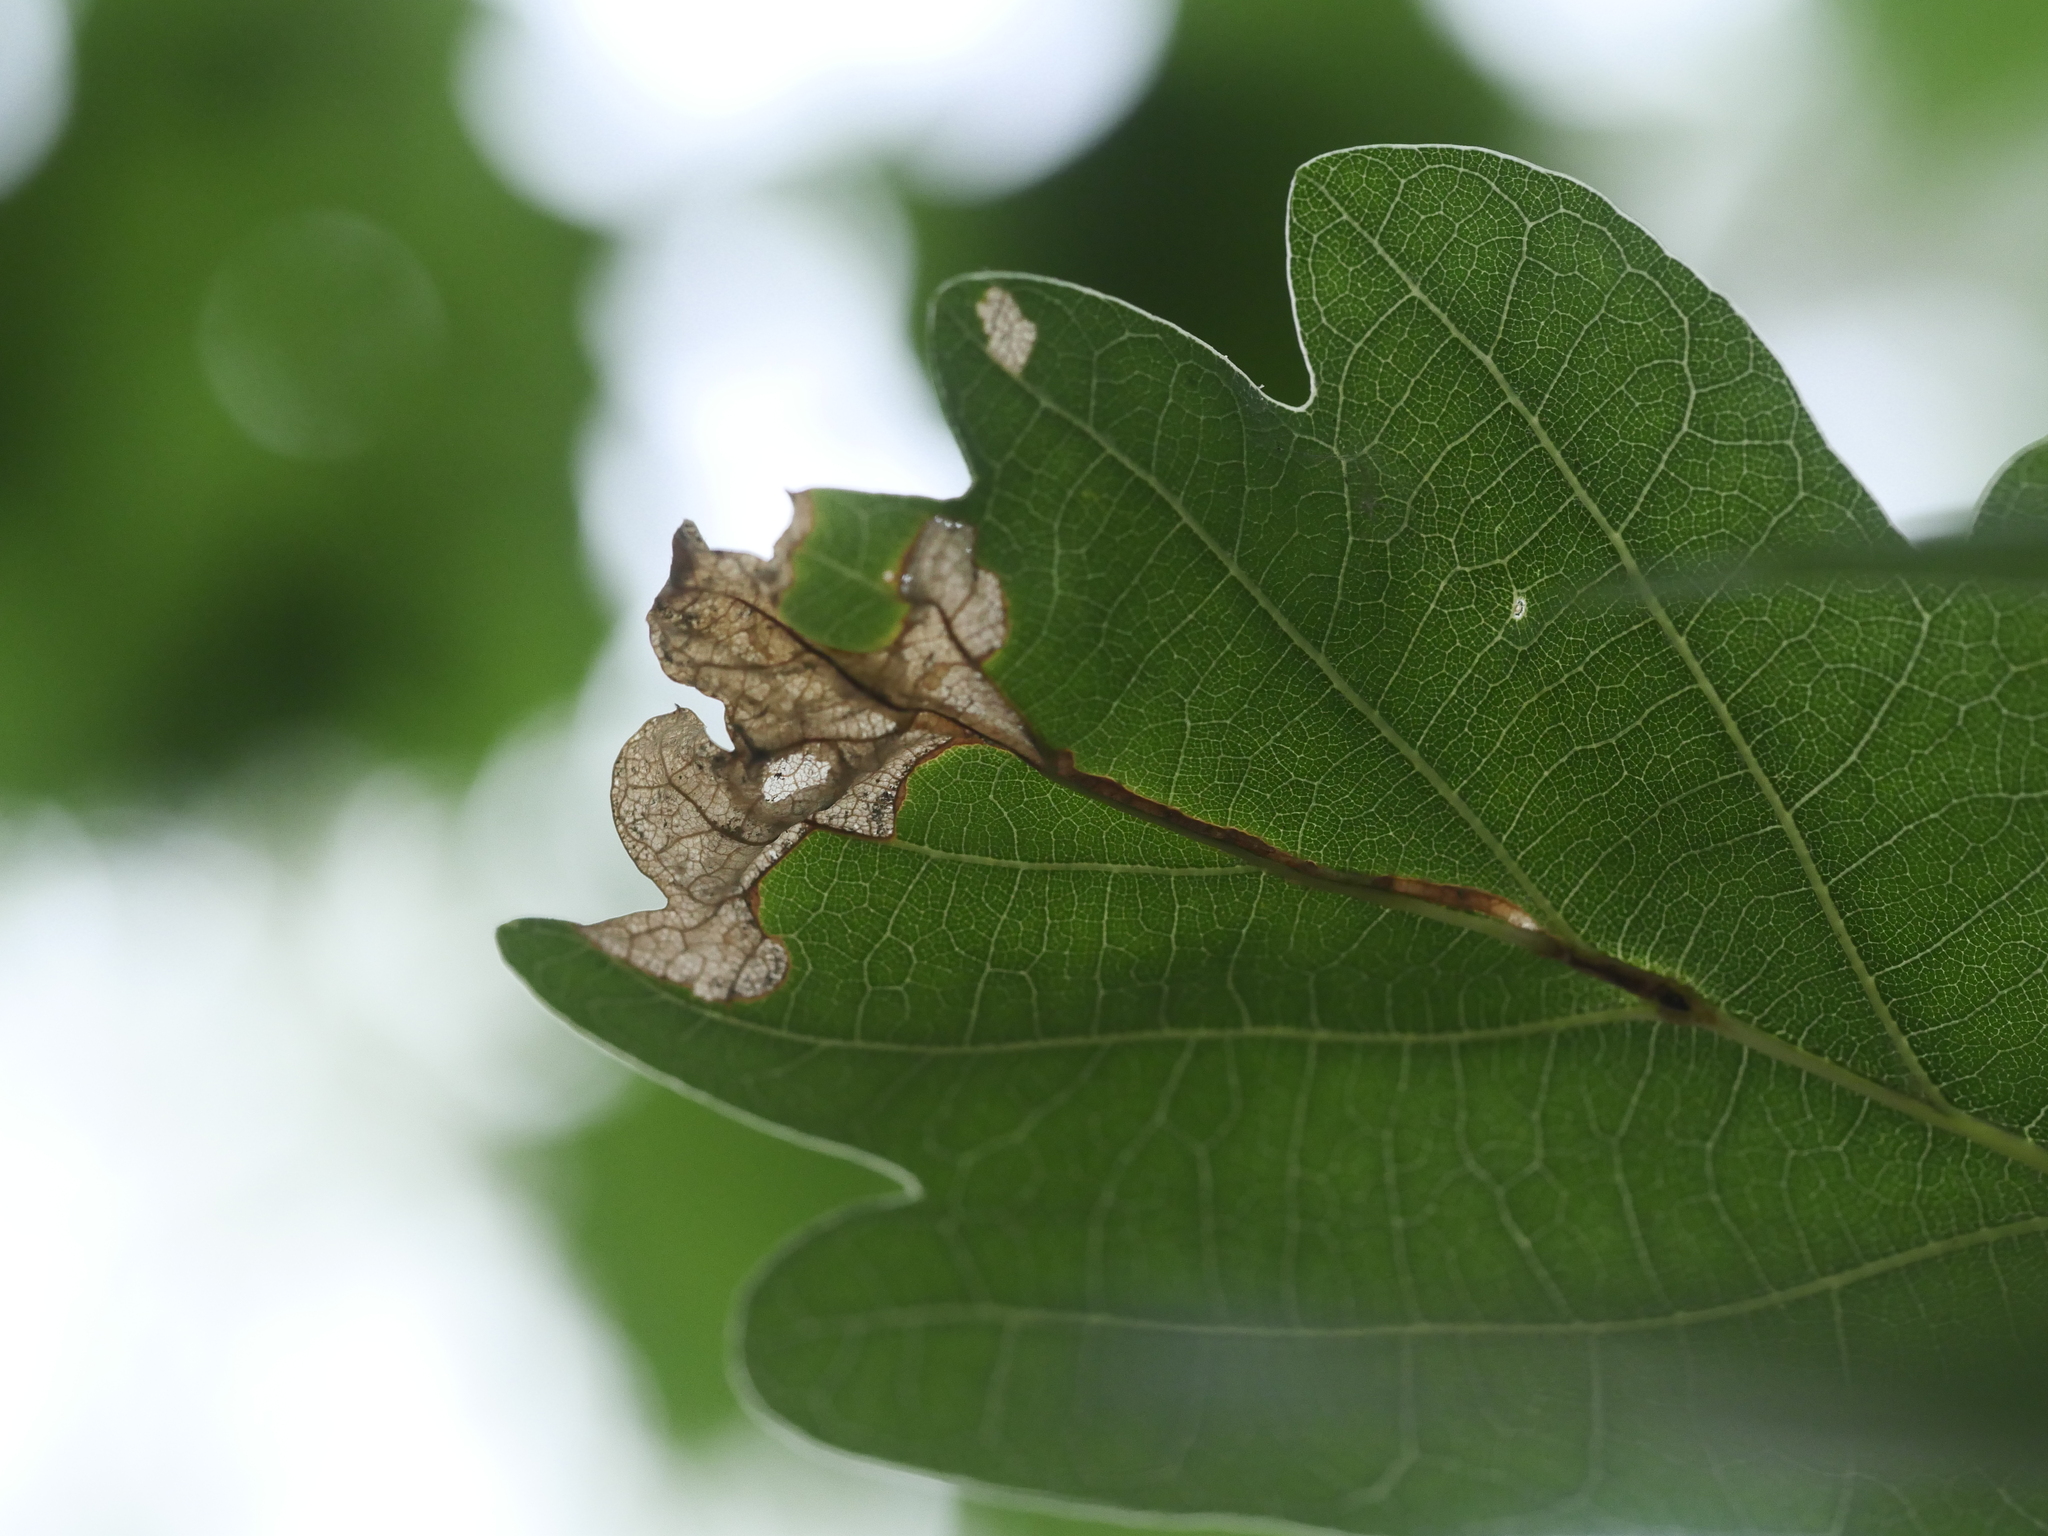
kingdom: Animalia
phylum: Arthropoda
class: Insecta
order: Coleoptera
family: Curculionidae
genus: Orchestes
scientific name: Orchestes quercus
